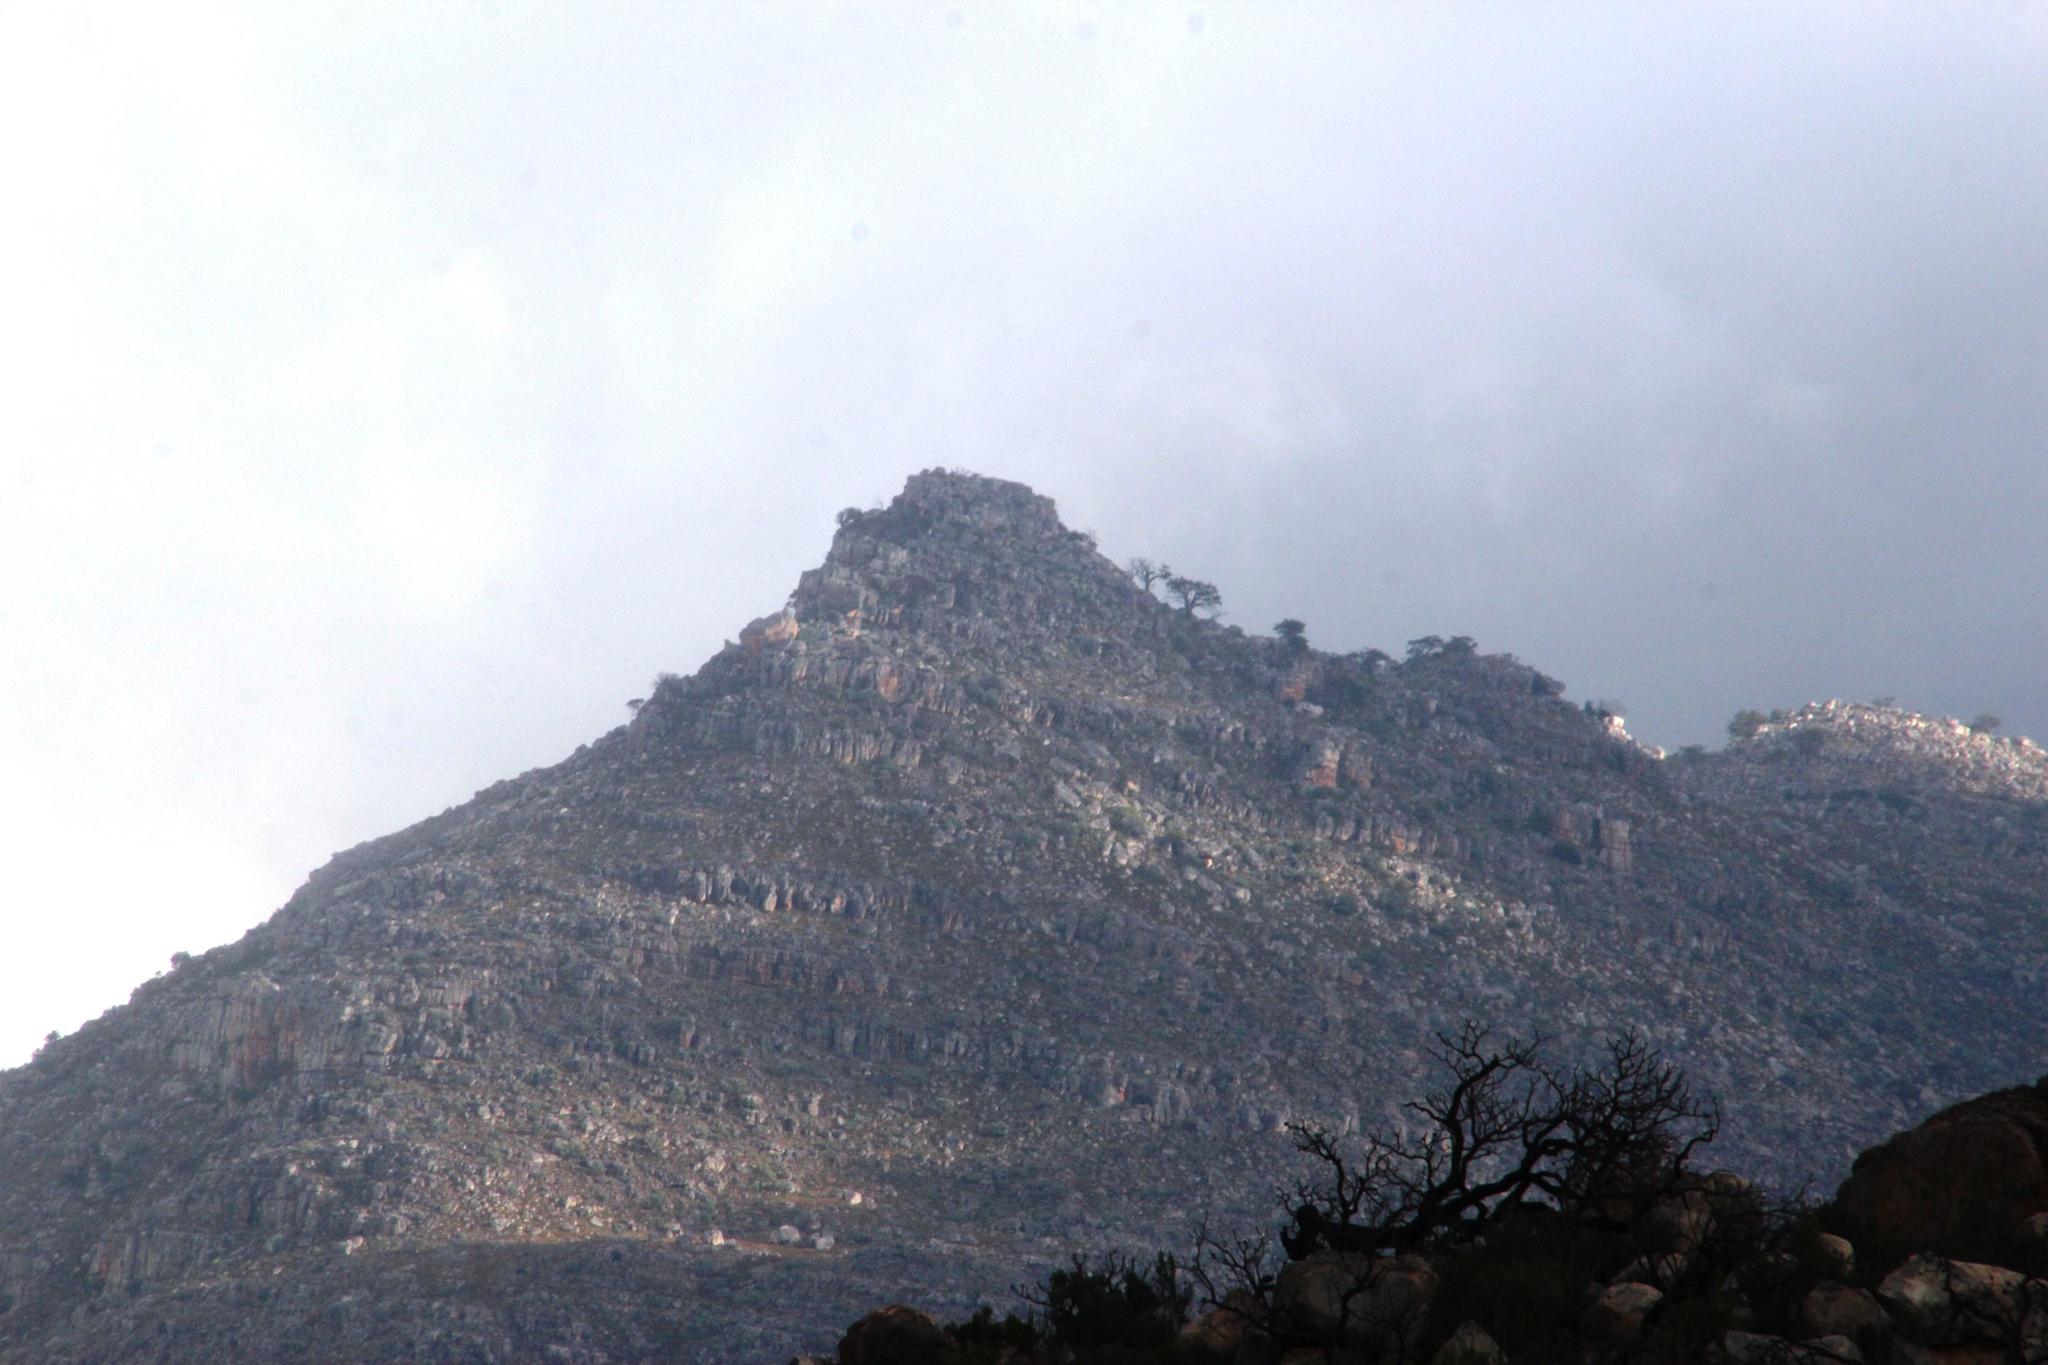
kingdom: Plantae
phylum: Tracheophyta
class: Pinopsida
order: Pinales
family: Cupressaceae
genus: Widdringtonia
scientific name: Widdringtonia nodiflora
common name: Cape cypress
